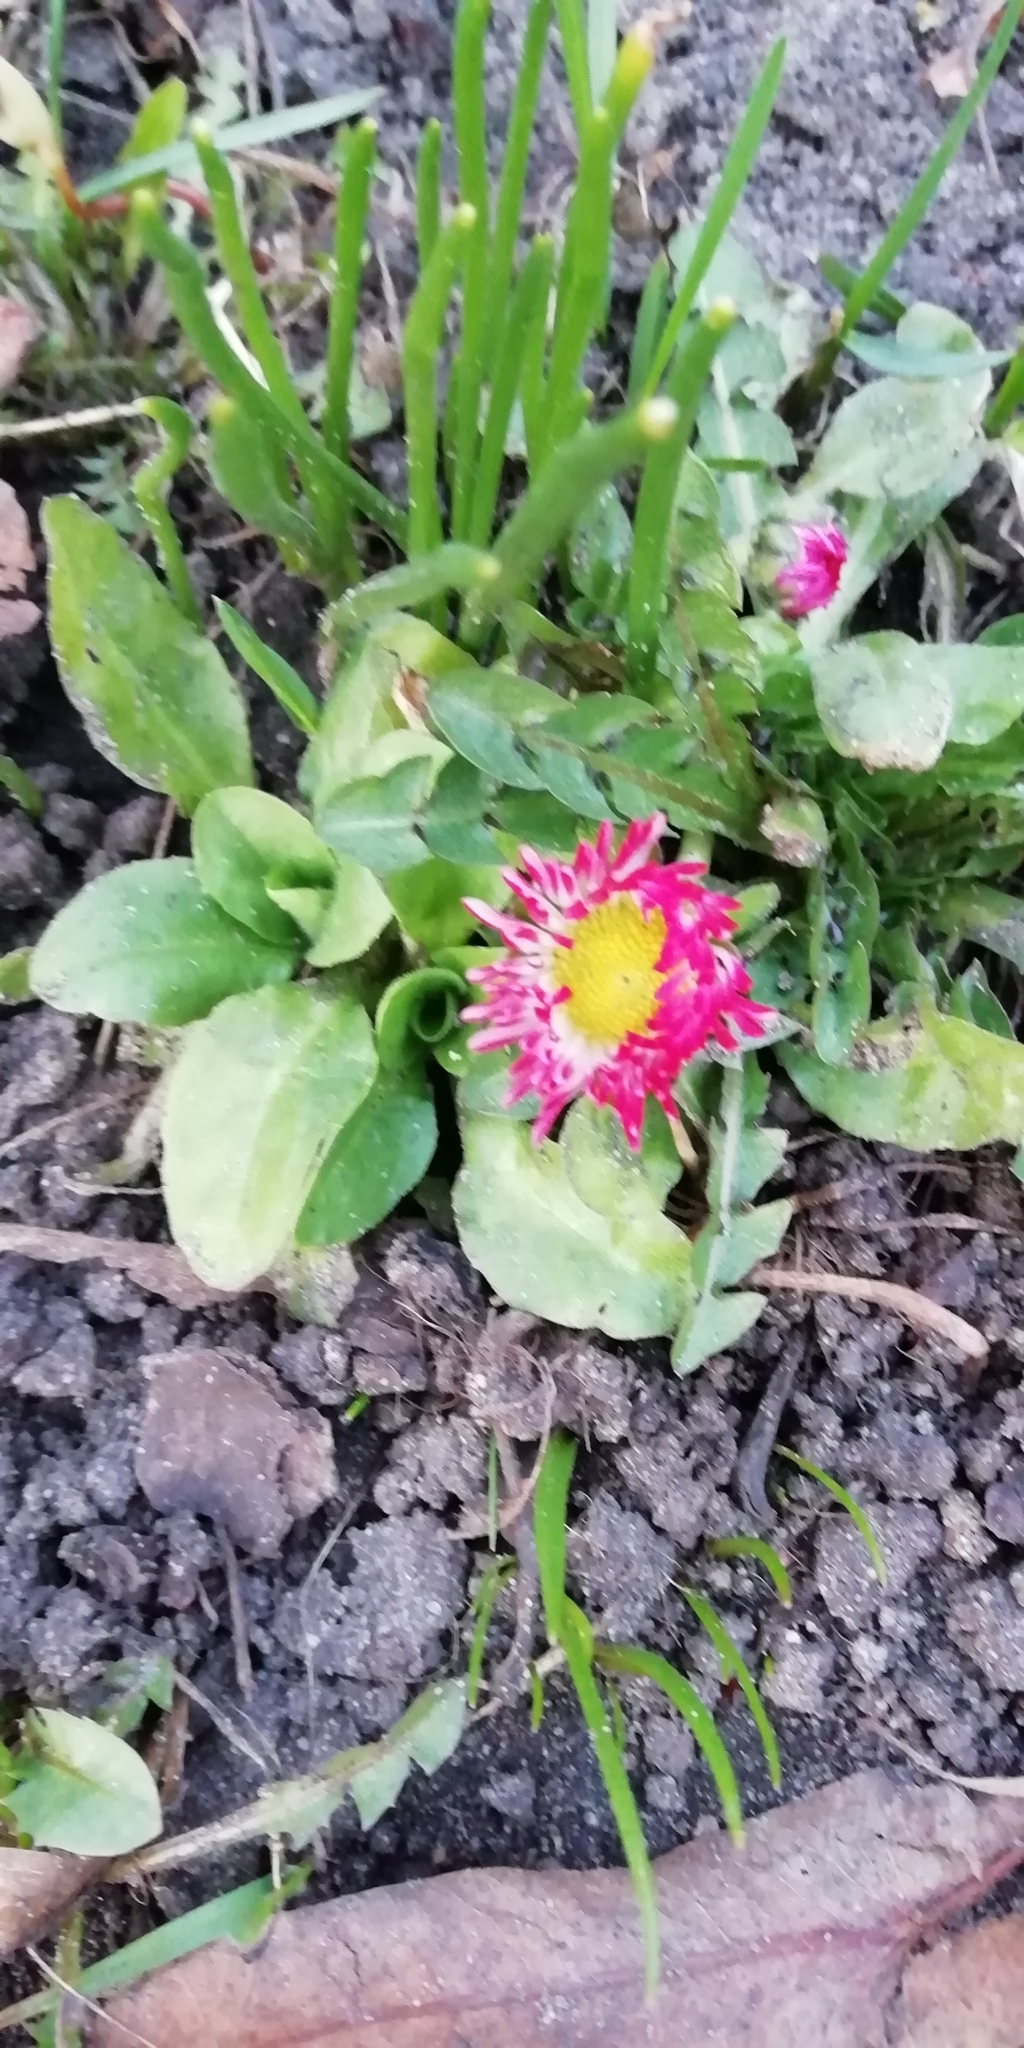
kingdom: Plantae
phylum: Tracheophyta
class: Magnoliopsida
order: Asterales
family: Asteraceae
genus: Bellis
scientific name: Bellis perennis
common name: Lawndaisy
